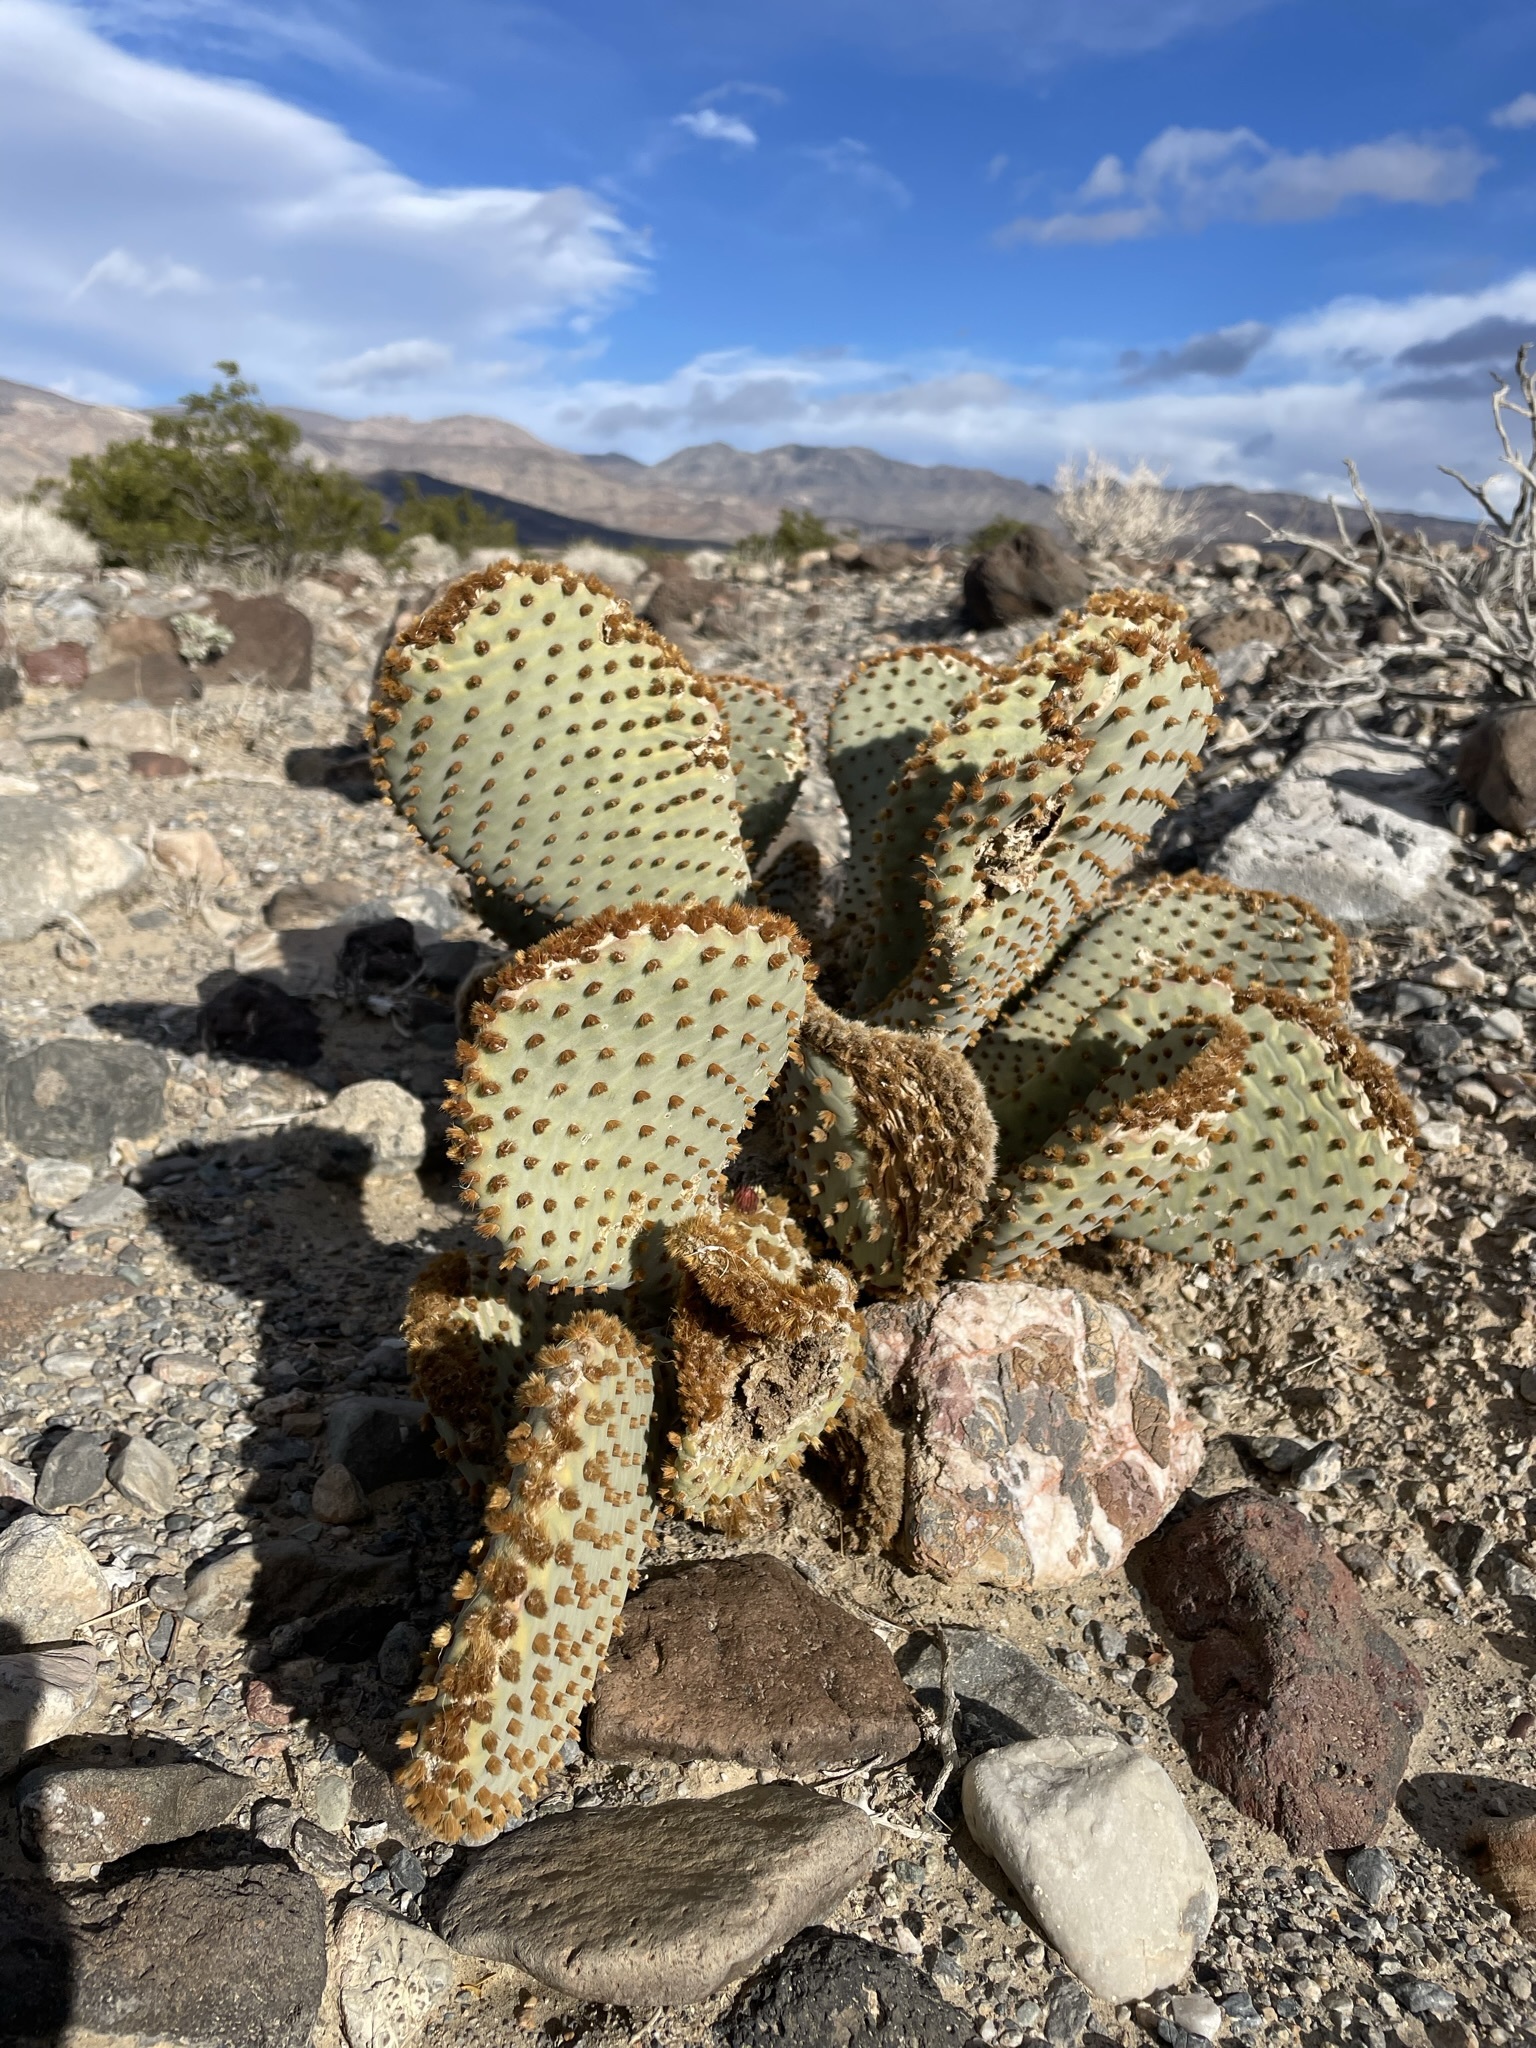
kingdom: Plantae
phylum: Tracheophyta
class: Magnoliopsida
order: Caryophyllales
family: Cactaceae
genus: Opuntia
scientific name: Opuntia basilaris
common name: Beavertail prickly-pear
